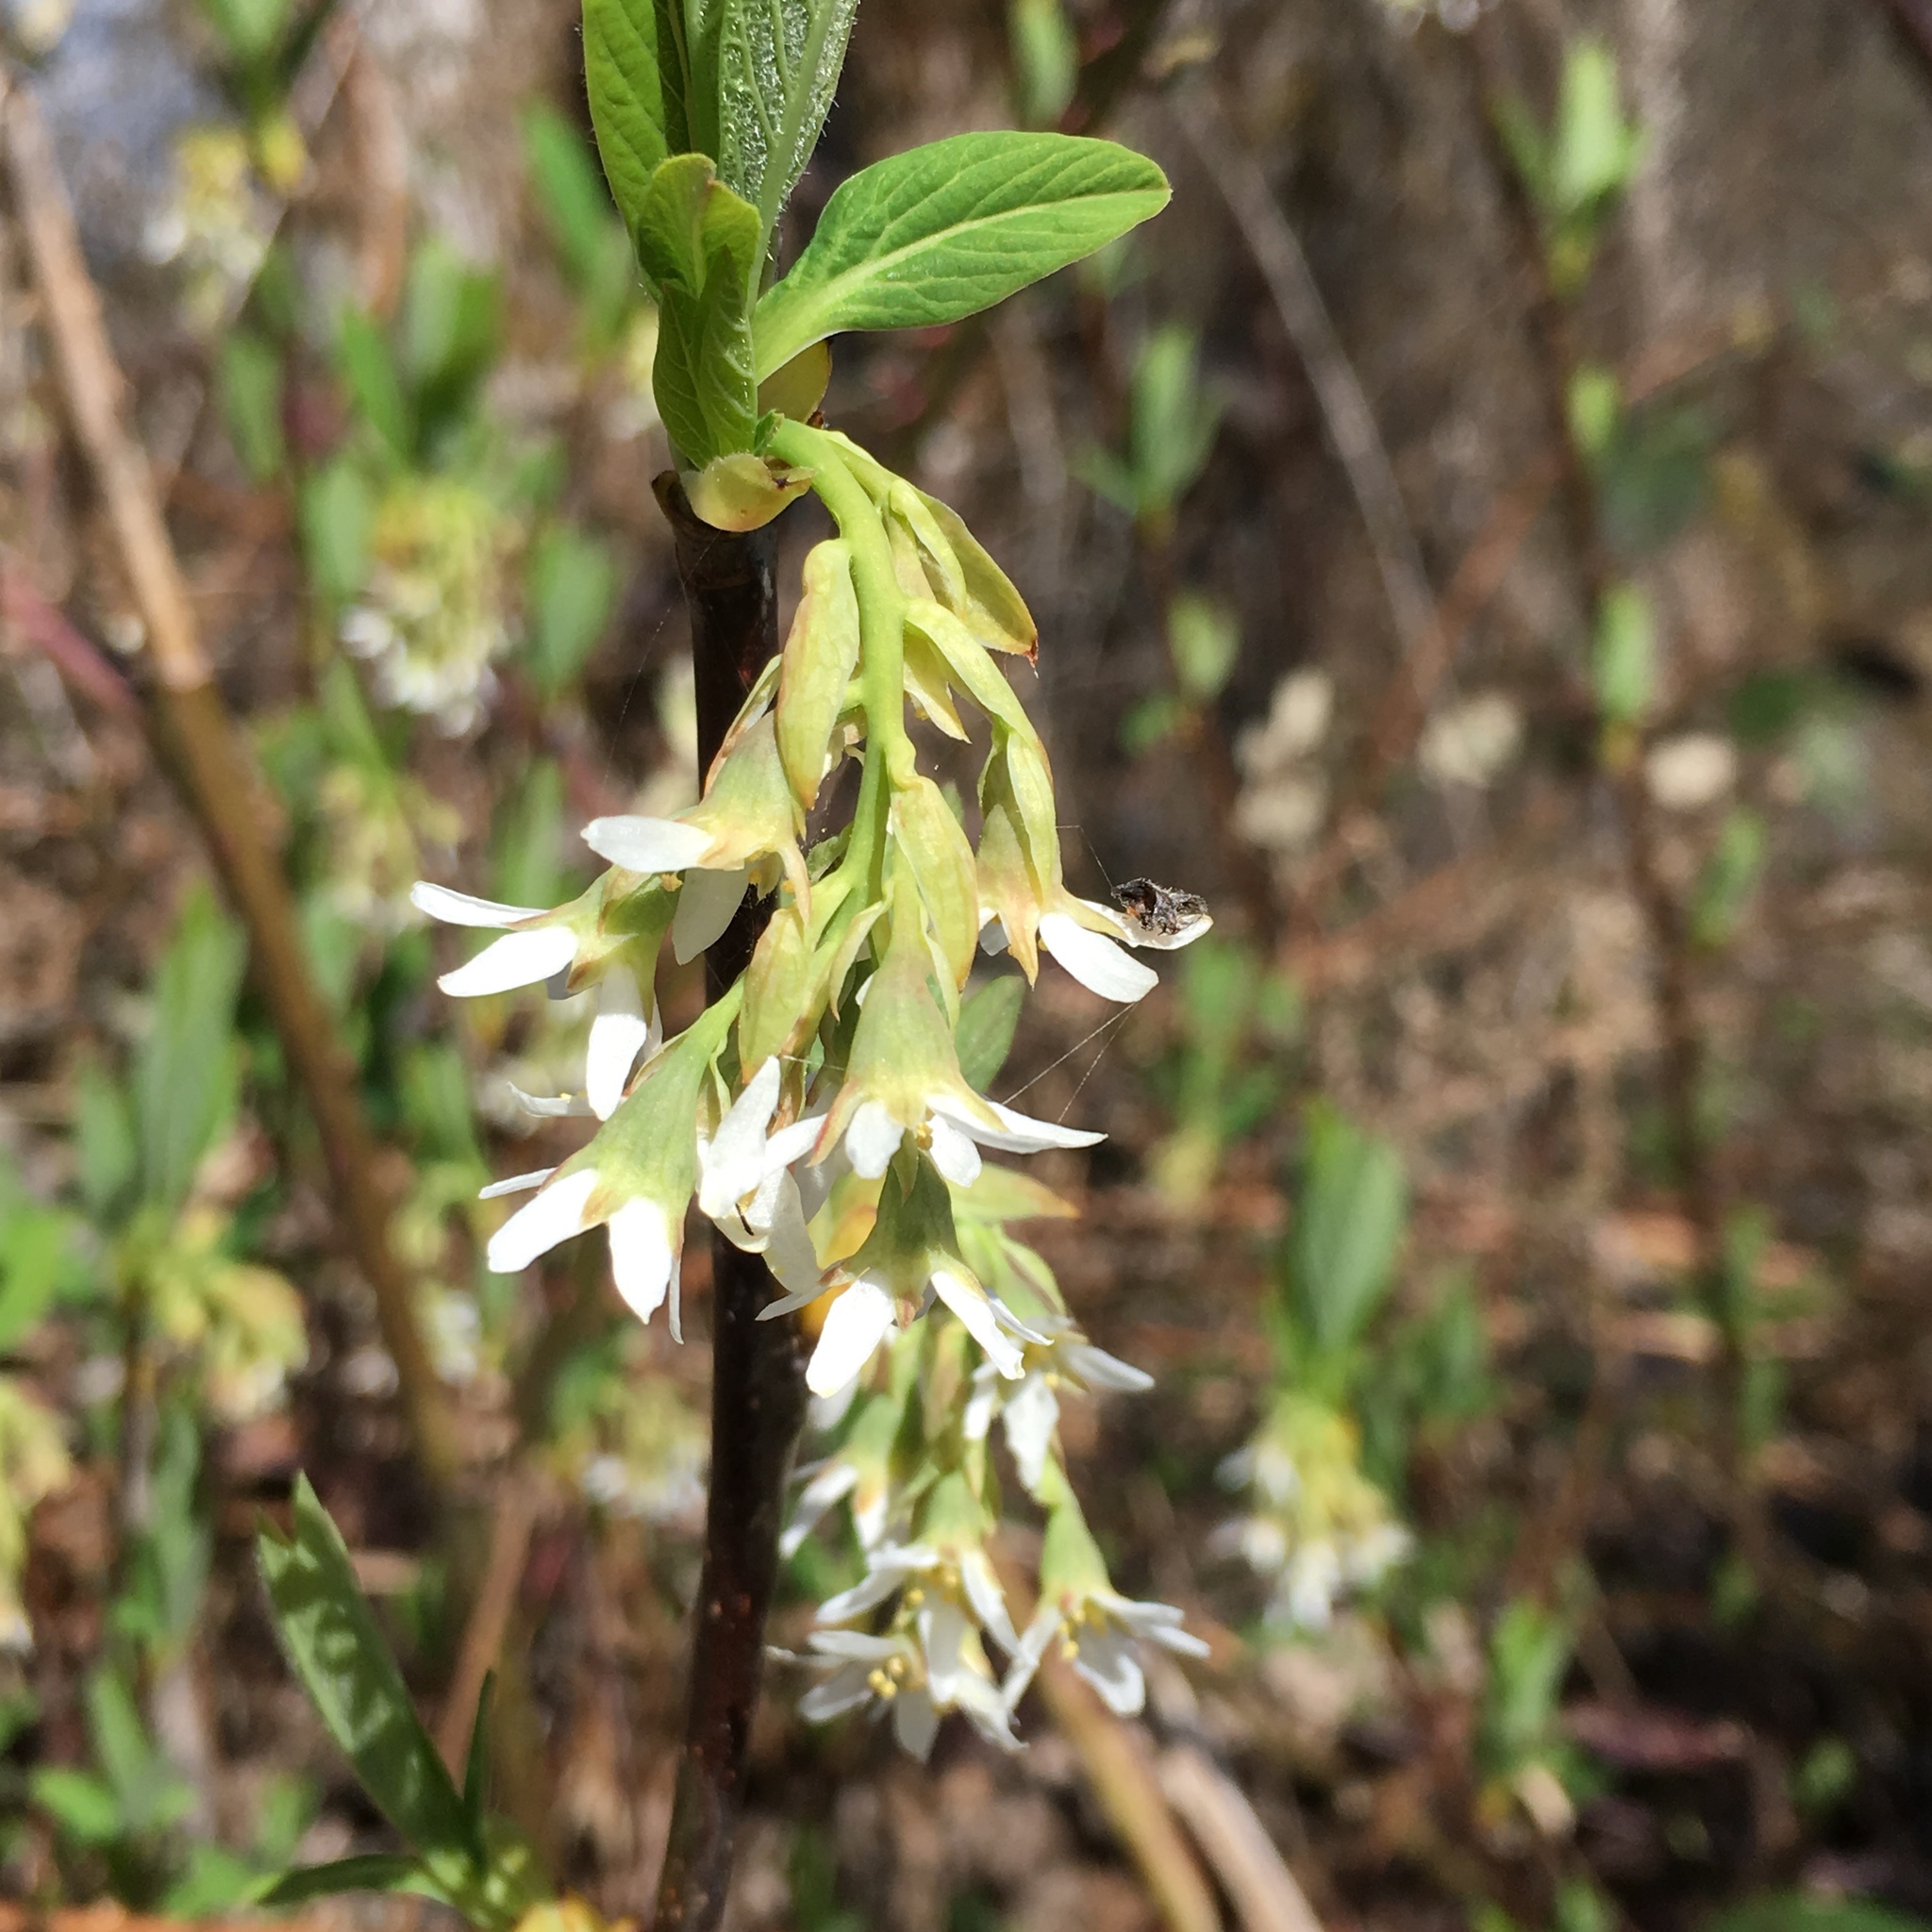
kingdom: Plantae
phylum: Tracheophyta
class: Magnoliopsida
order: Rosales
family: Rosaceae
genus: Oemleria
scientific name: Oemleria cerasiformis
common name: Osoberry
